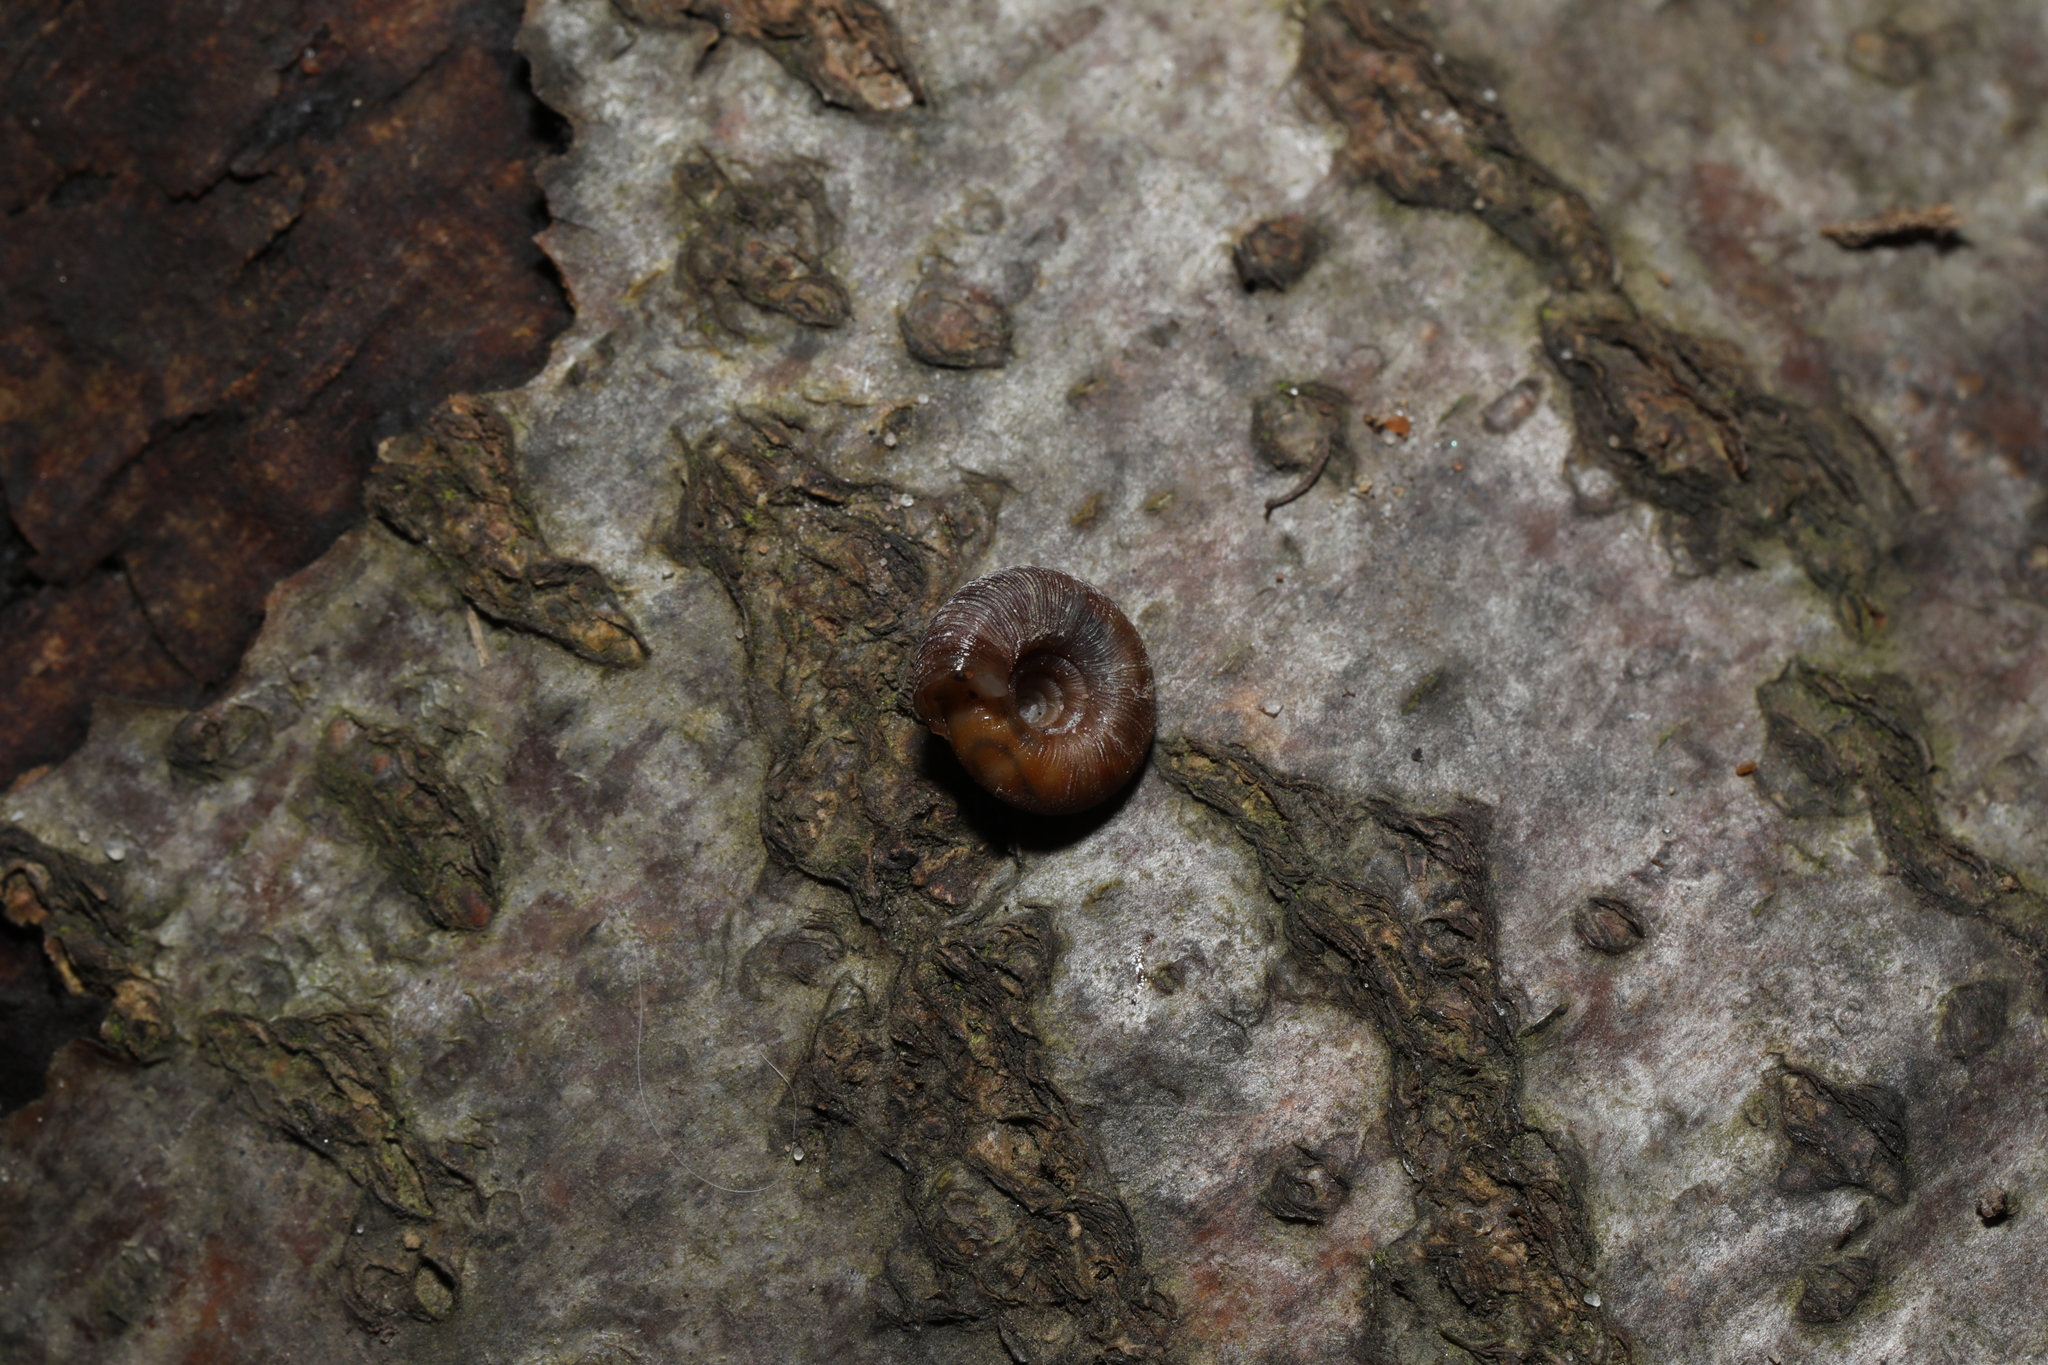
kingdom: Animalia
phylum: Mollusca
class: Gastropoda
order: Stylommatophora
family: Discidae
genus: Discus
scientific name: Discus rotundatus
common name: Rounded snail
